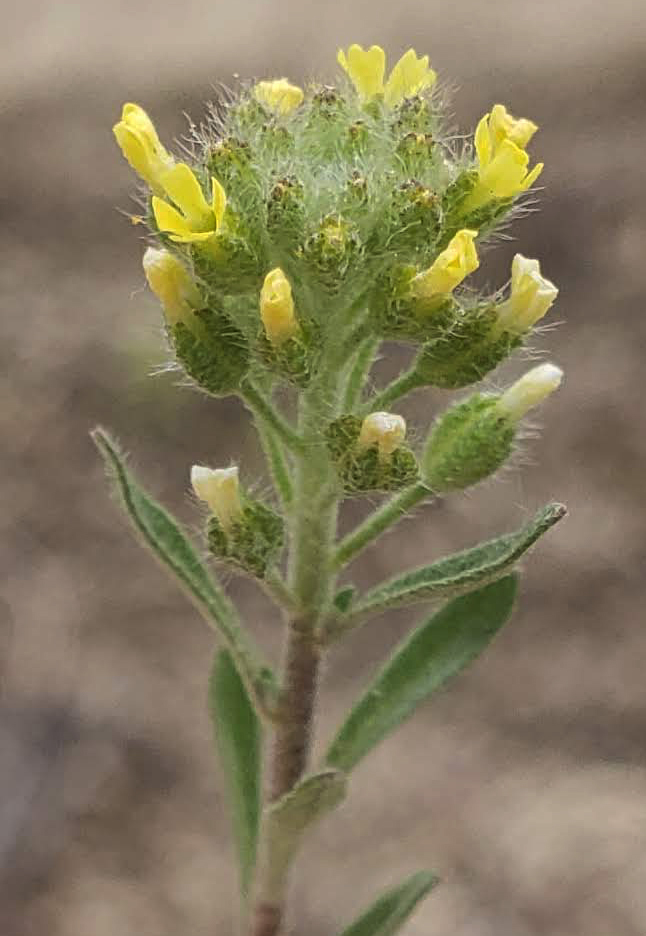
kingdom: Plantae
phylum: Tracheophyta
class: Magnoliopsida
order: Brassicales
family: Brassicaceae
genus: Alyssum
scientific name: Alyssum alyssoides
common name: Small alison
